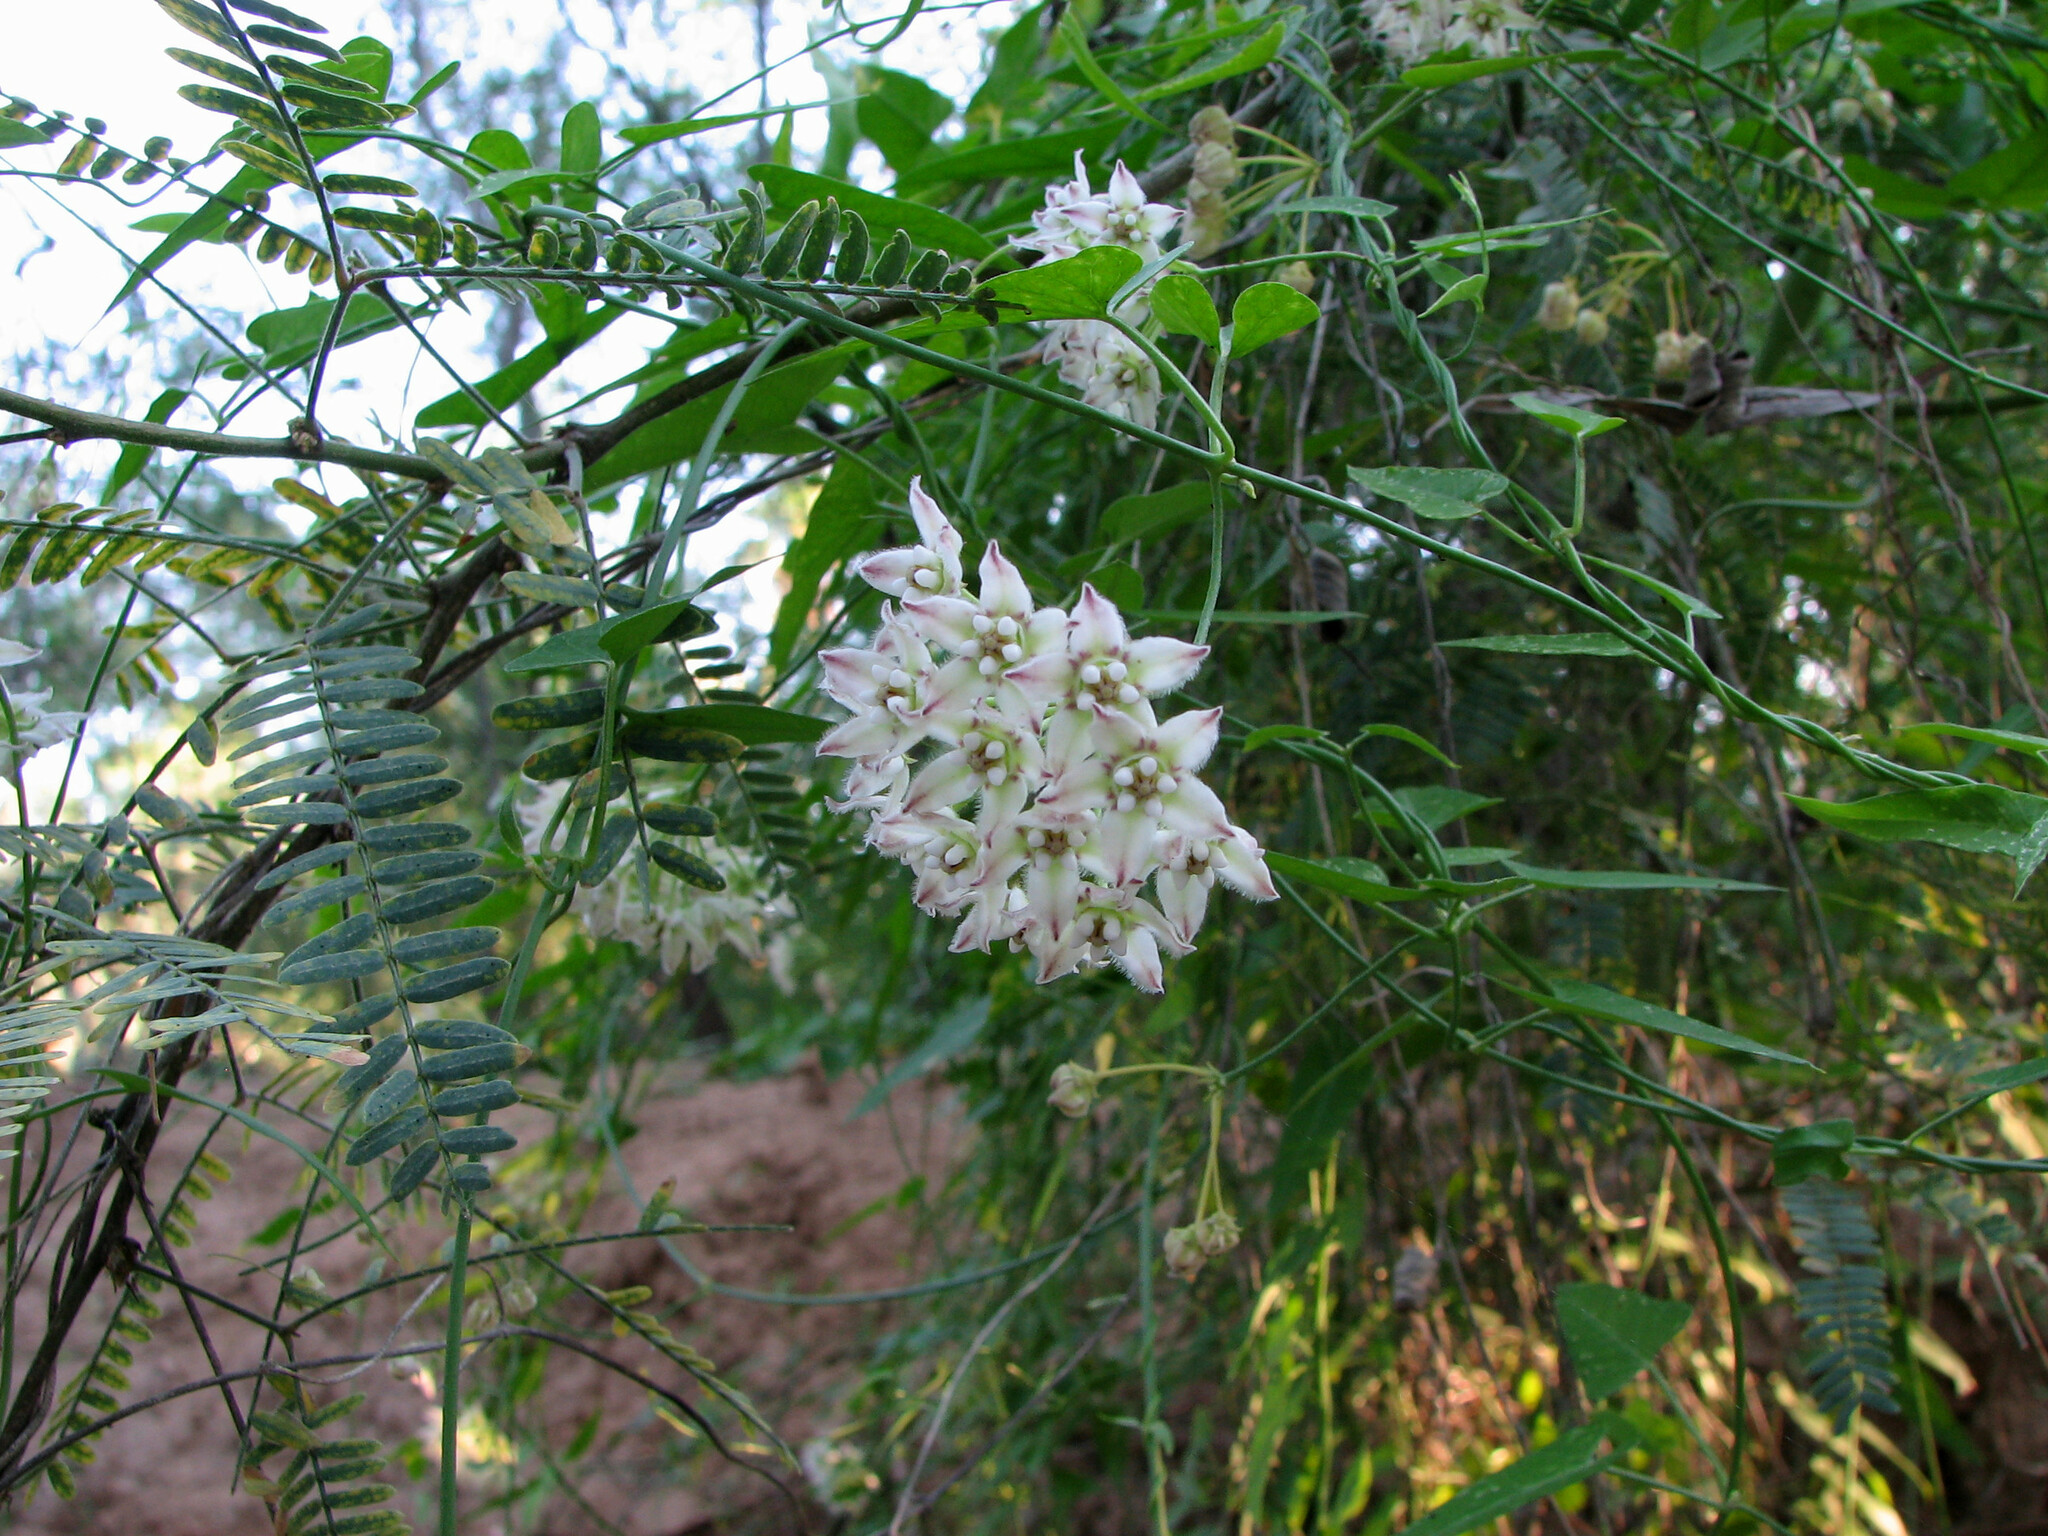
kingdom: Plantae
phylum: Tracheophyta
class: Magnoliopsida
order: Gentianales
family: Apocynaceae
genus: Funastrum
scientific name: Funastrum cynanchoides
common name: Climbing-milkweed
